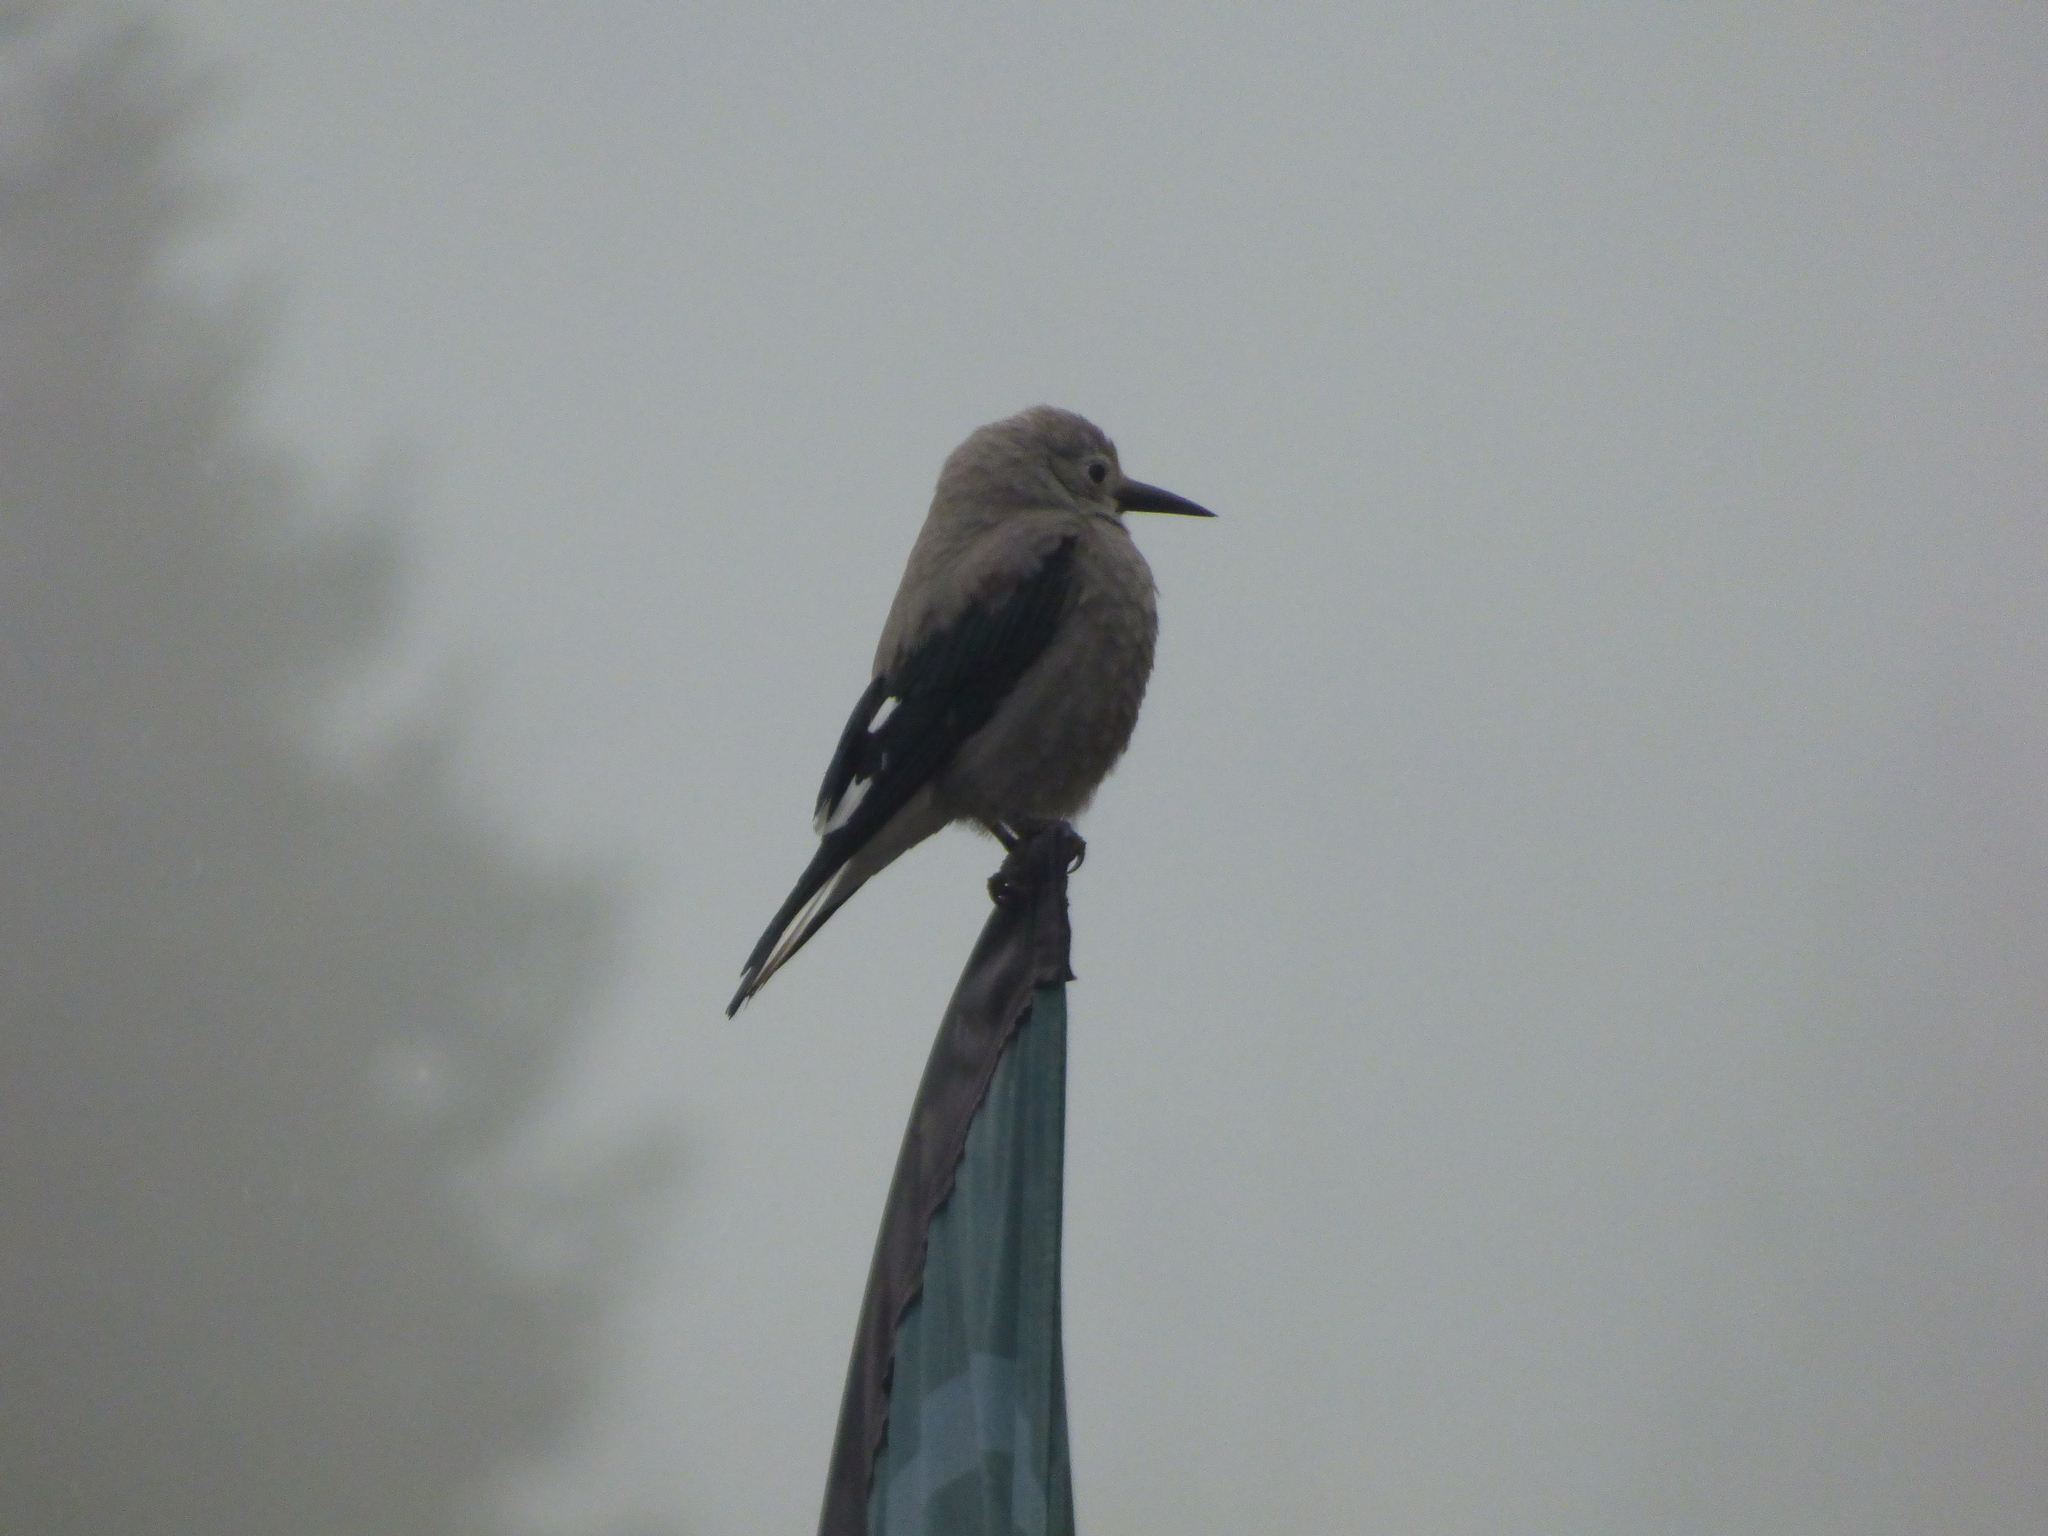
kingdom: Animalia
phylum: Chordata
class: Aves
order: Passeriformes
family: Corvidae
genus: Nucifraga
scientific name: Nucifraga columbiana
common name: Clark's nutcracker
